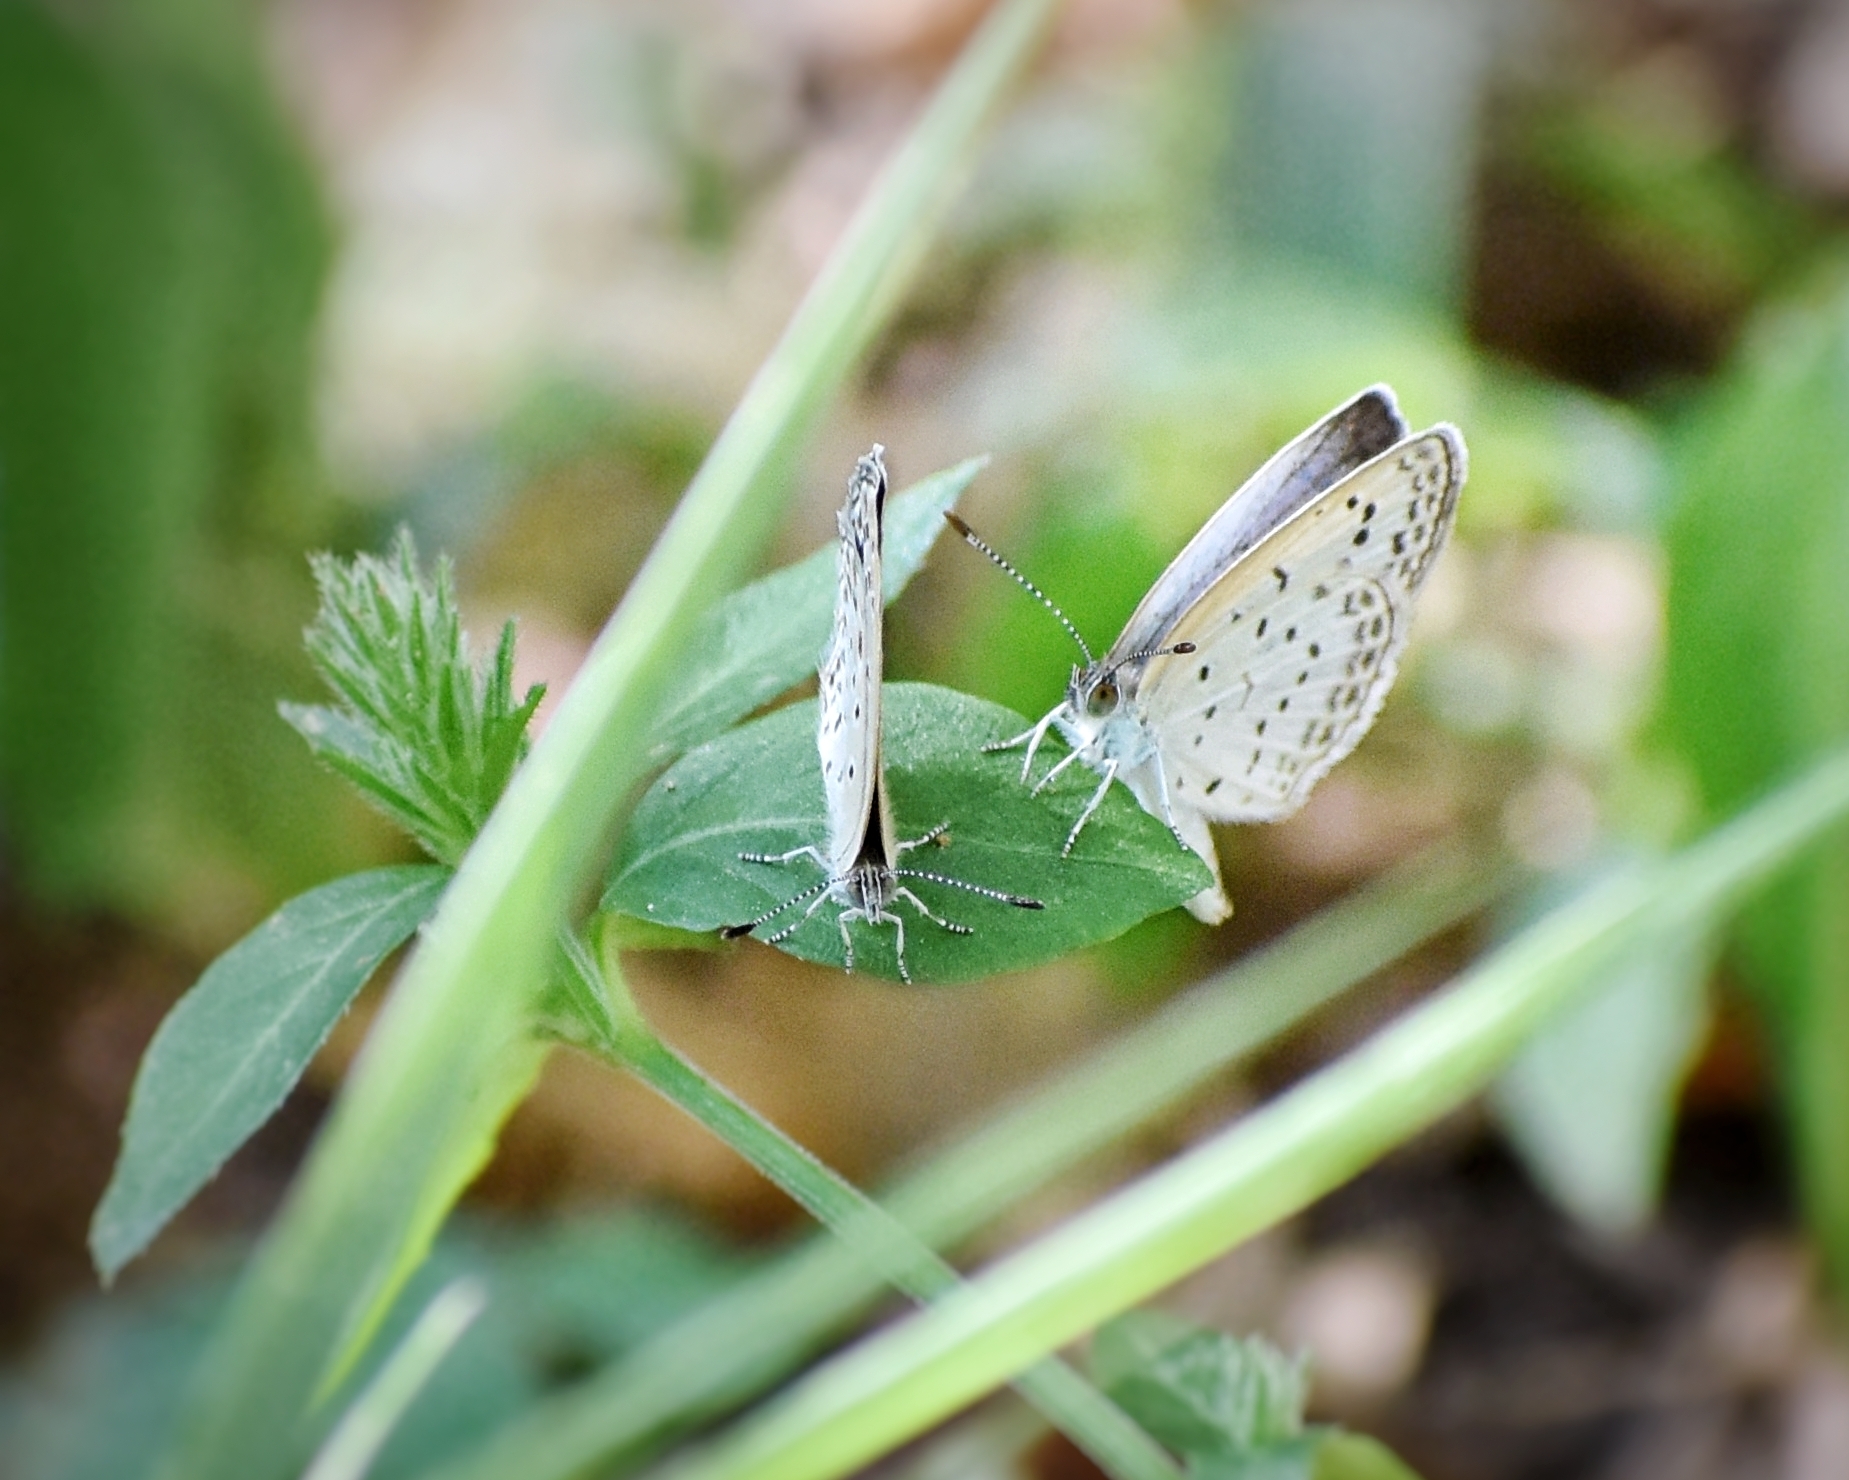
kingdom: Animalia
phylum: Arthropoda
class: Insecta
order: Lepidoptera
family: Lycaenidae
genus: Pseudozizeeria
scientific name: Pseudozizeeria maha
